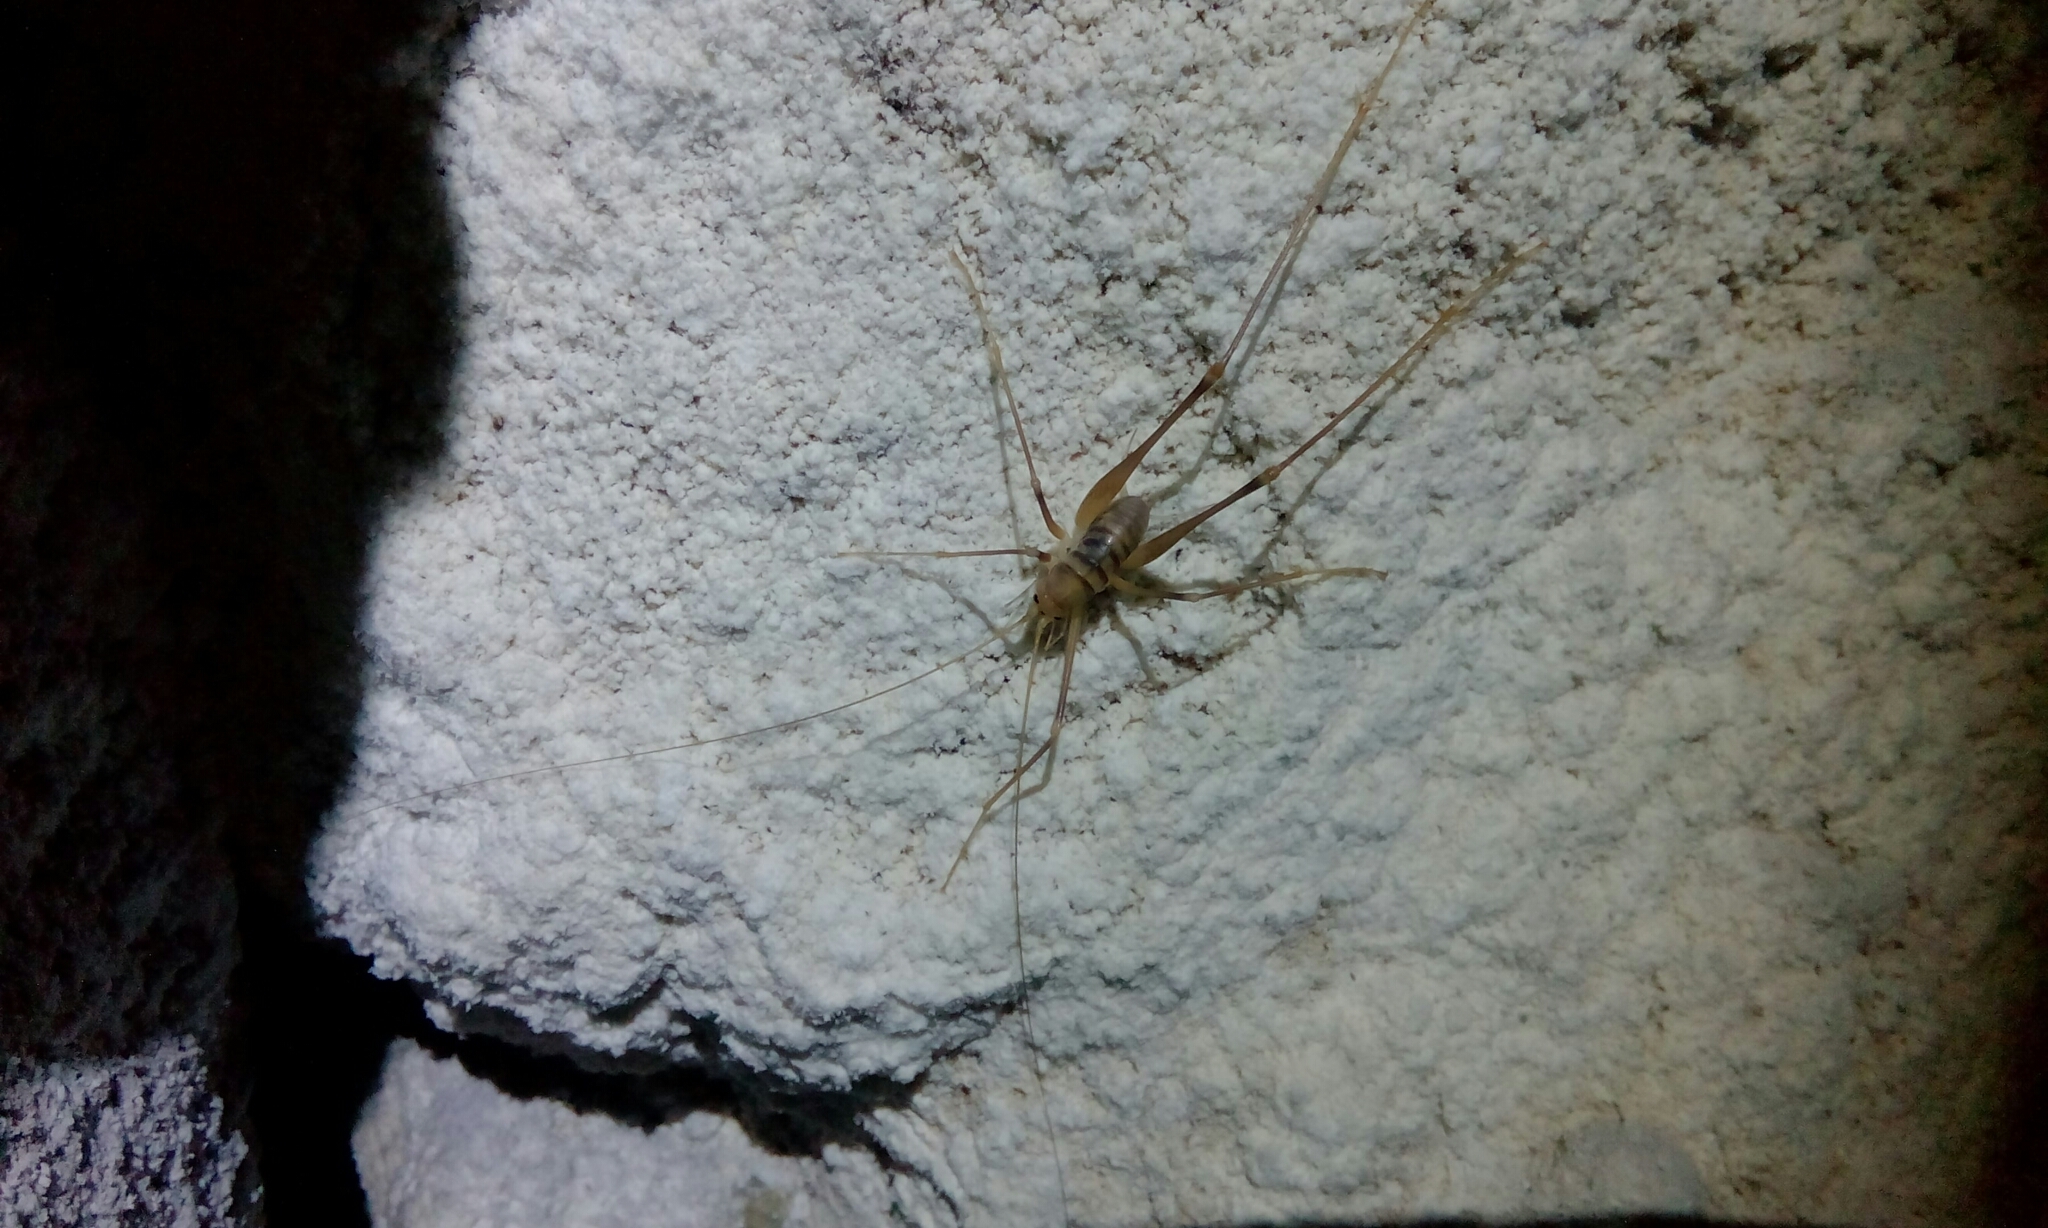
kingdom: Animalia
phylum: Arthropoda
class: Insecta
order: Orthoptera
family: Rhaphidophoridae
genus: Dolichopoda
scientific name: Dolichopoda laetitiae
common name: Laetitia's cave cricket
